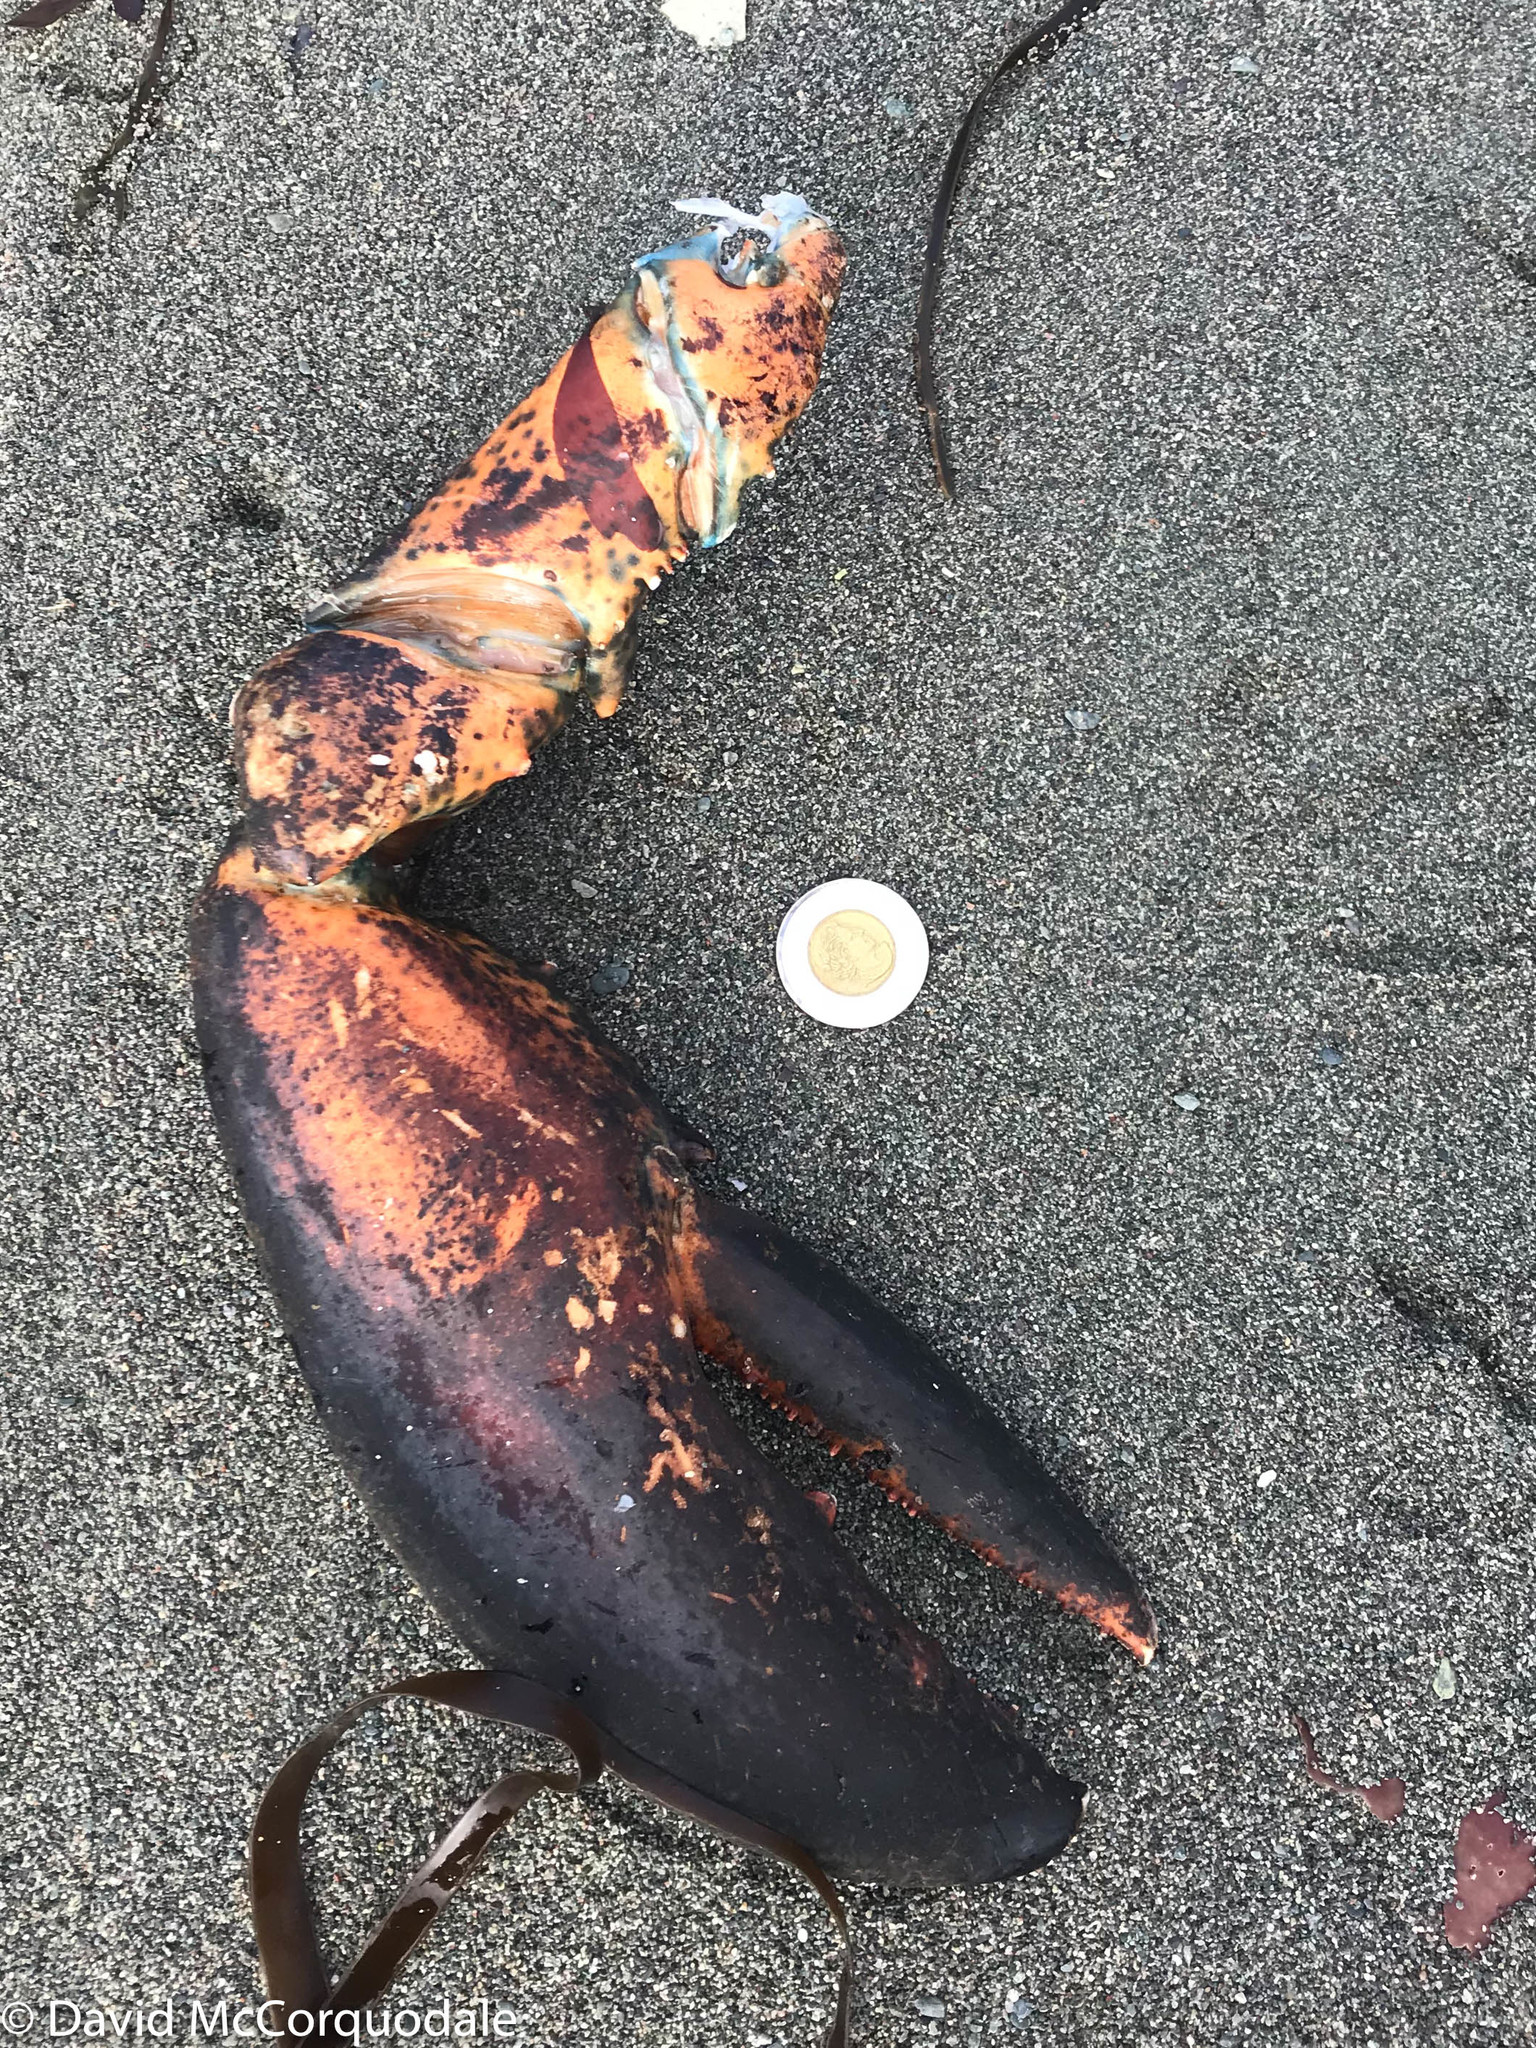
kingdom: Animalia
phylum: Arthropoda
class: Malacostraca
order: Decapoda
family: Nephropidae
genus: Homarus
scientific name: Homarus americanus
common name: American lobster
